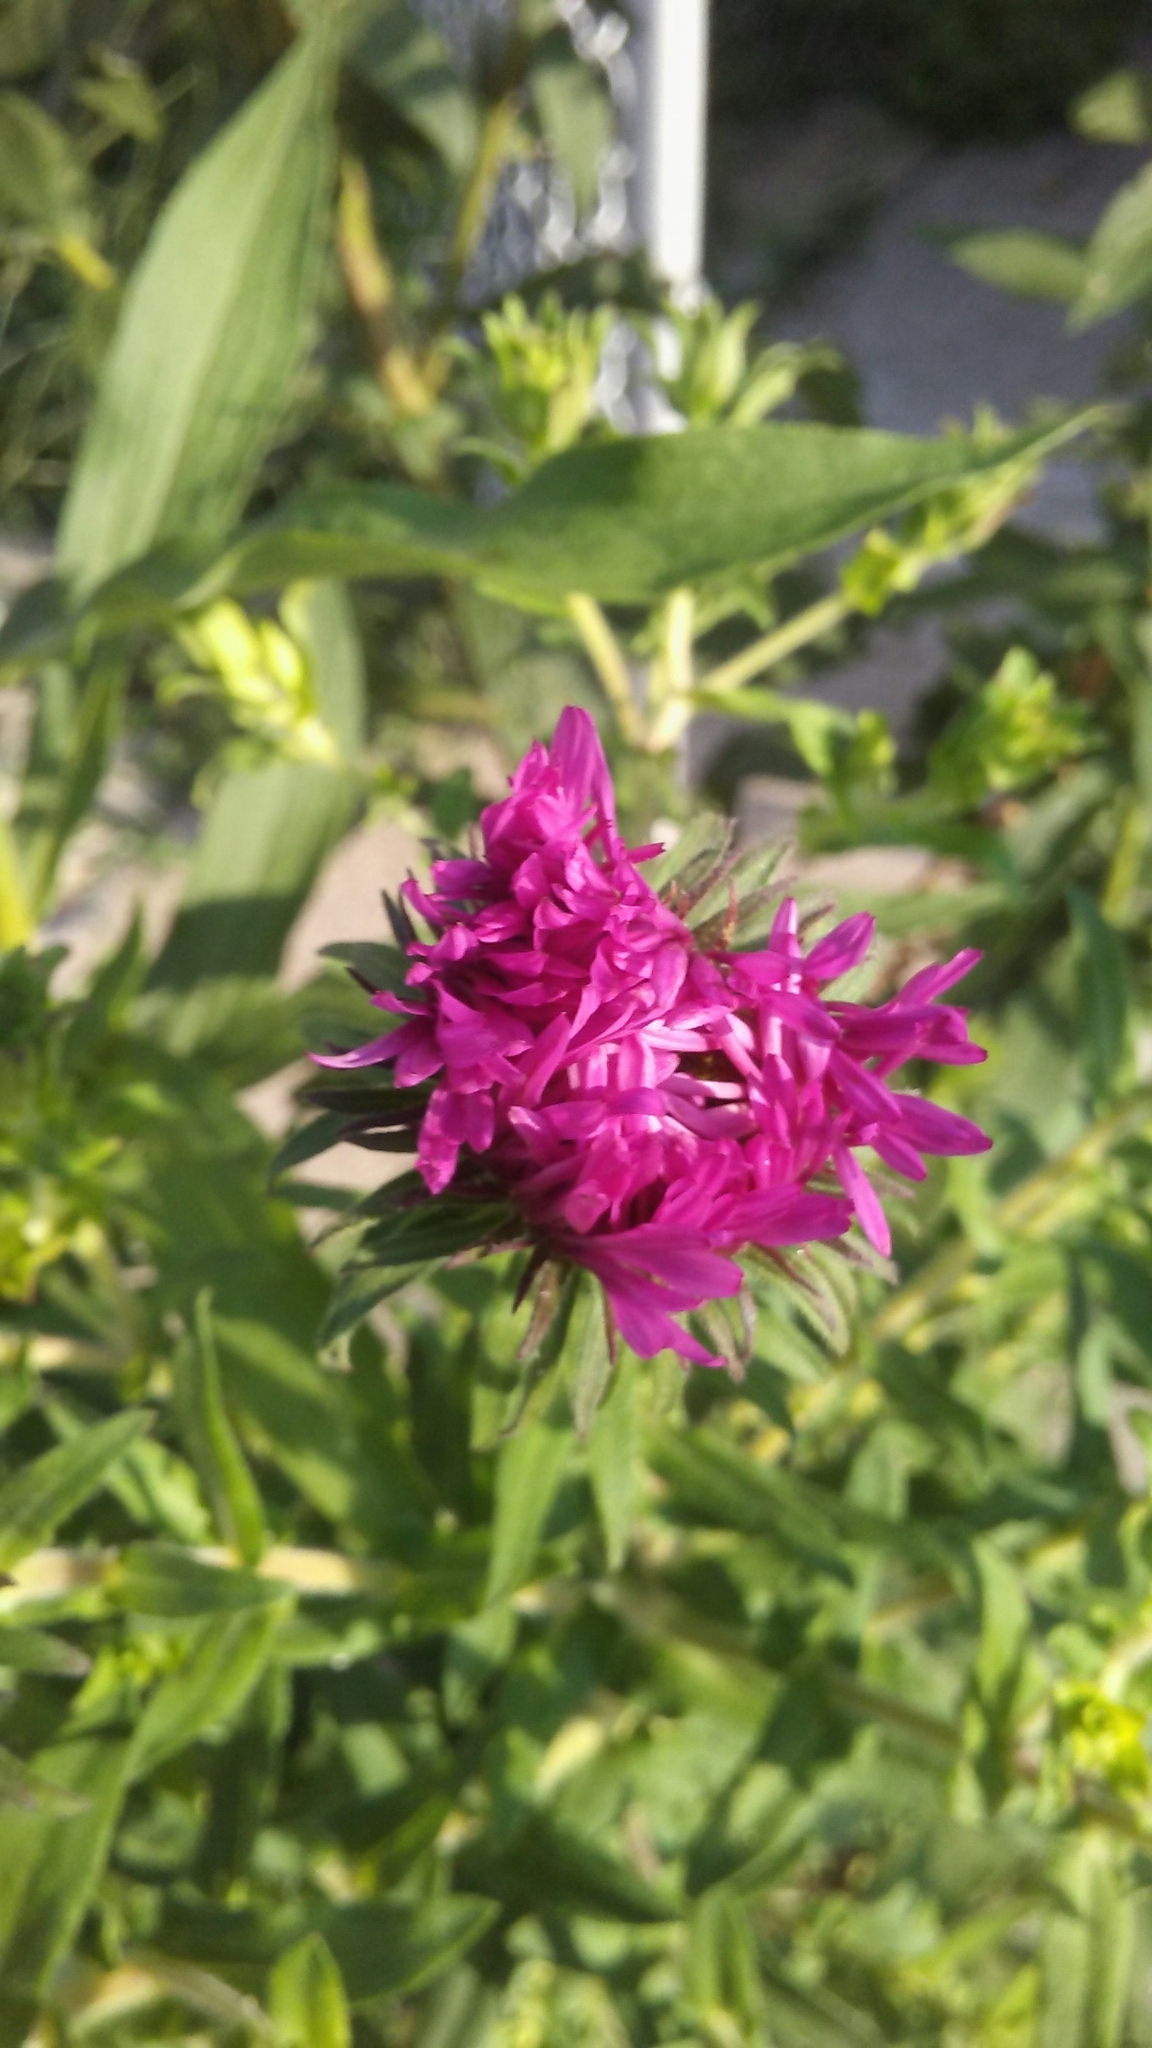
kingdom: Plantae
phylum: Tracheophyta
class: Magnoliopsida
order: Asterales
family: Asteraceae
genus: Symphyotrichum
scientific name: Symphyotrichum novae-angliae
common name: Michaelmas daisy
